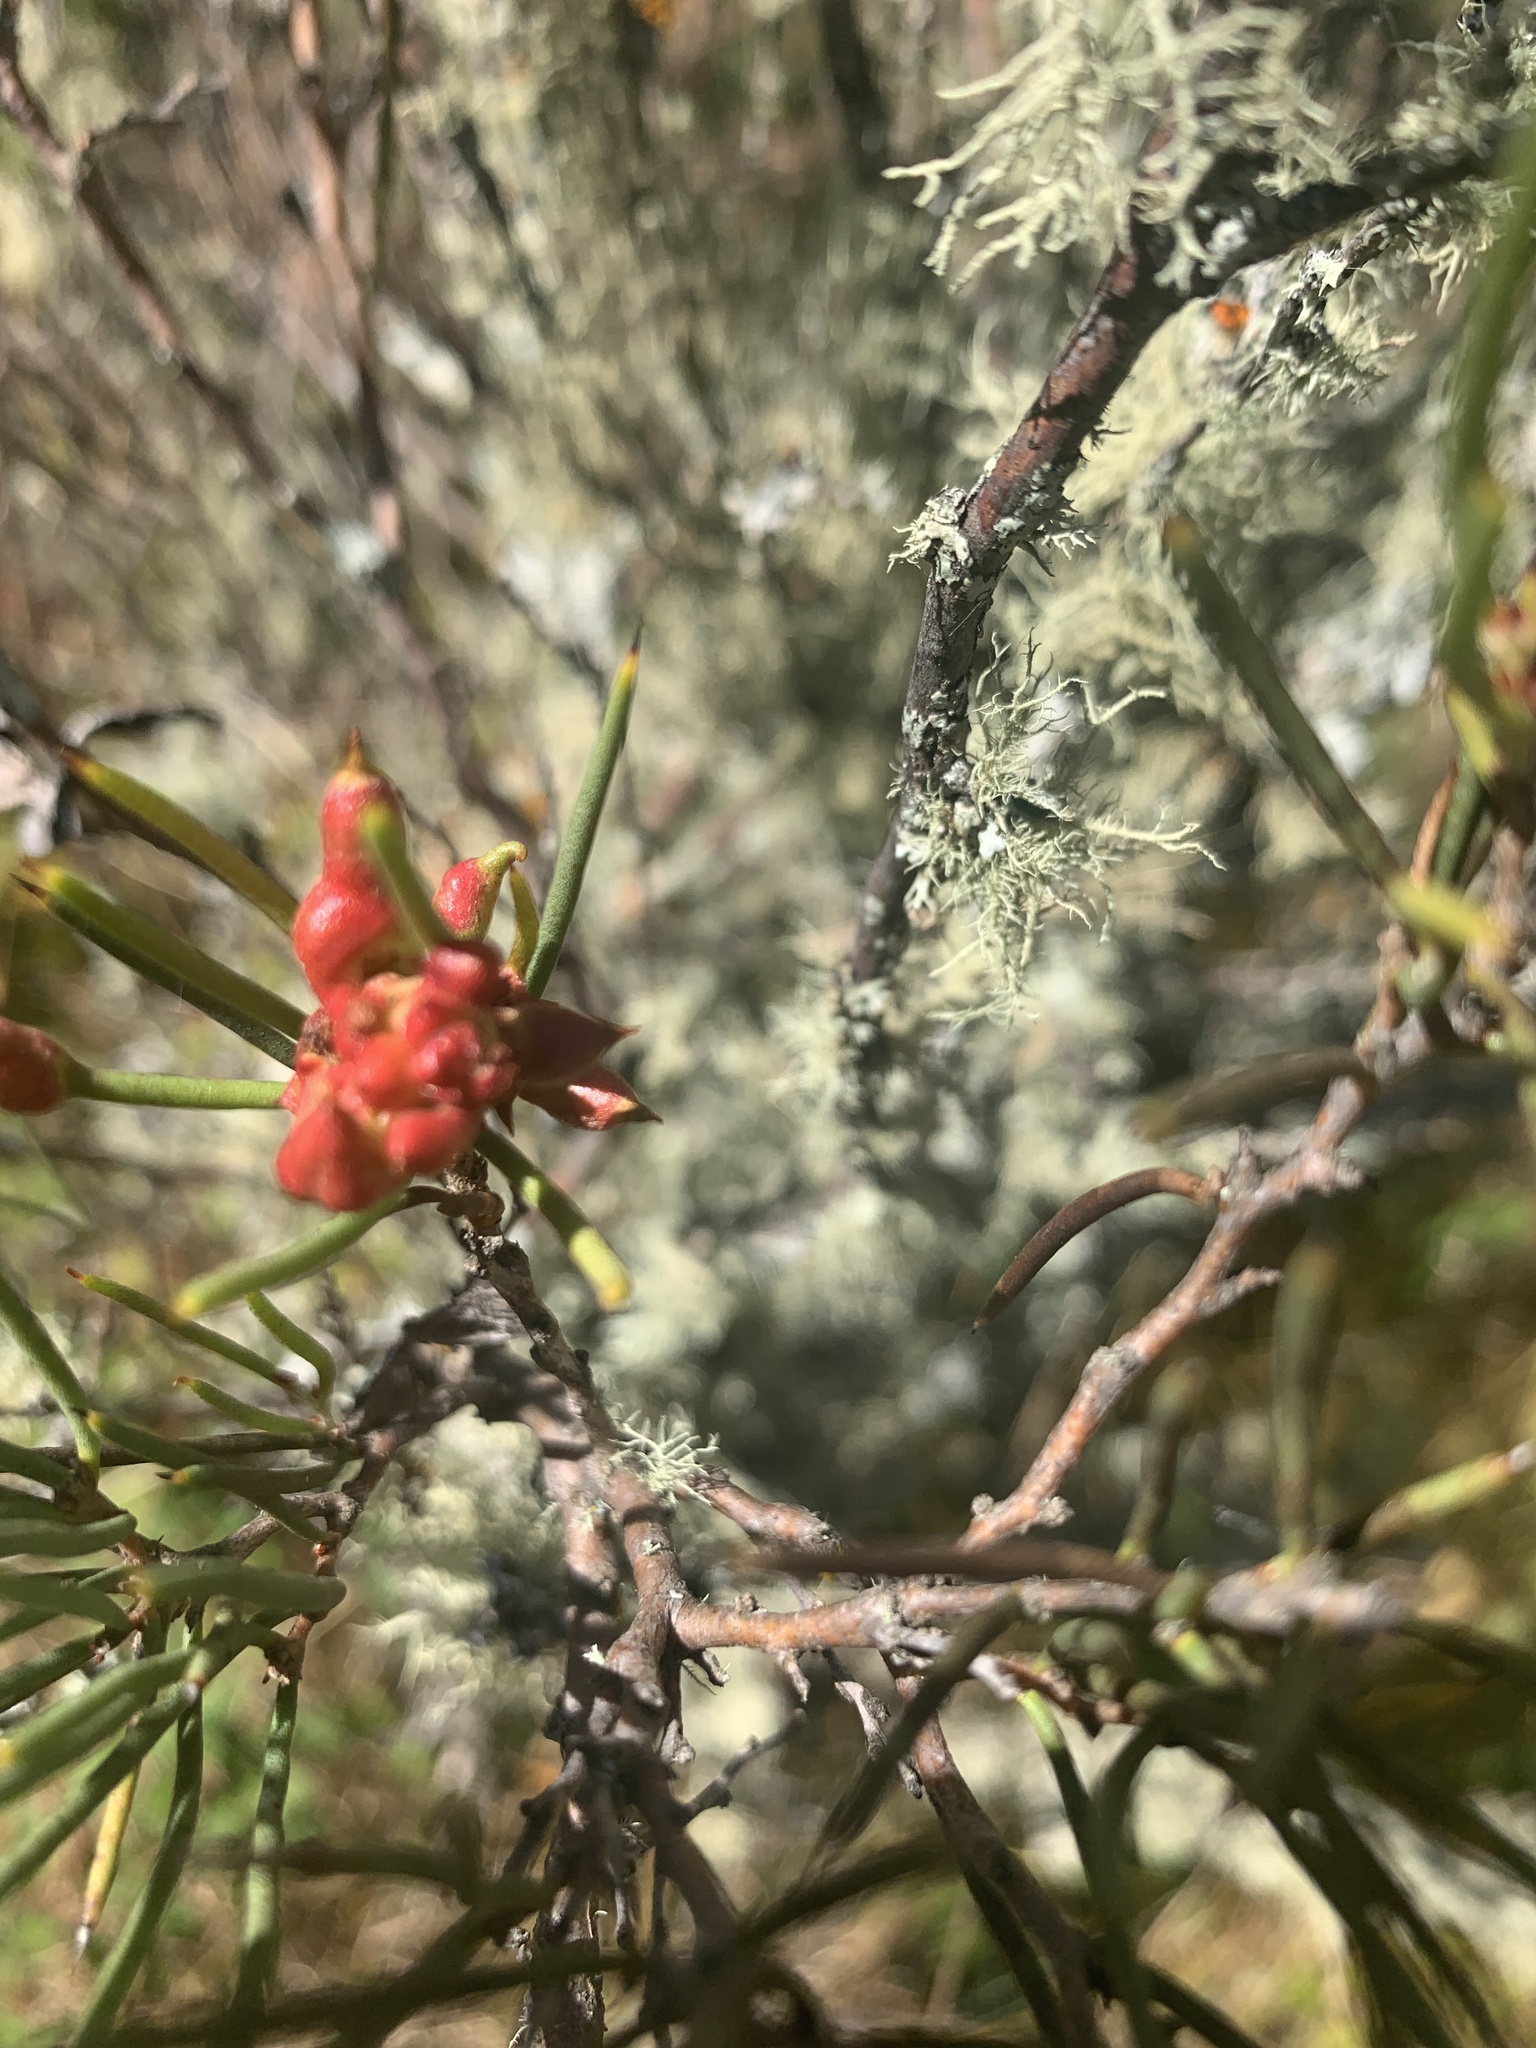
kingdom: Plantae
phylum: Tracheophyta
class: Magnoliopsida
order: Proteales
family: Proteaceae
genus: Hakea
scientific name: Hakea microcarpa
